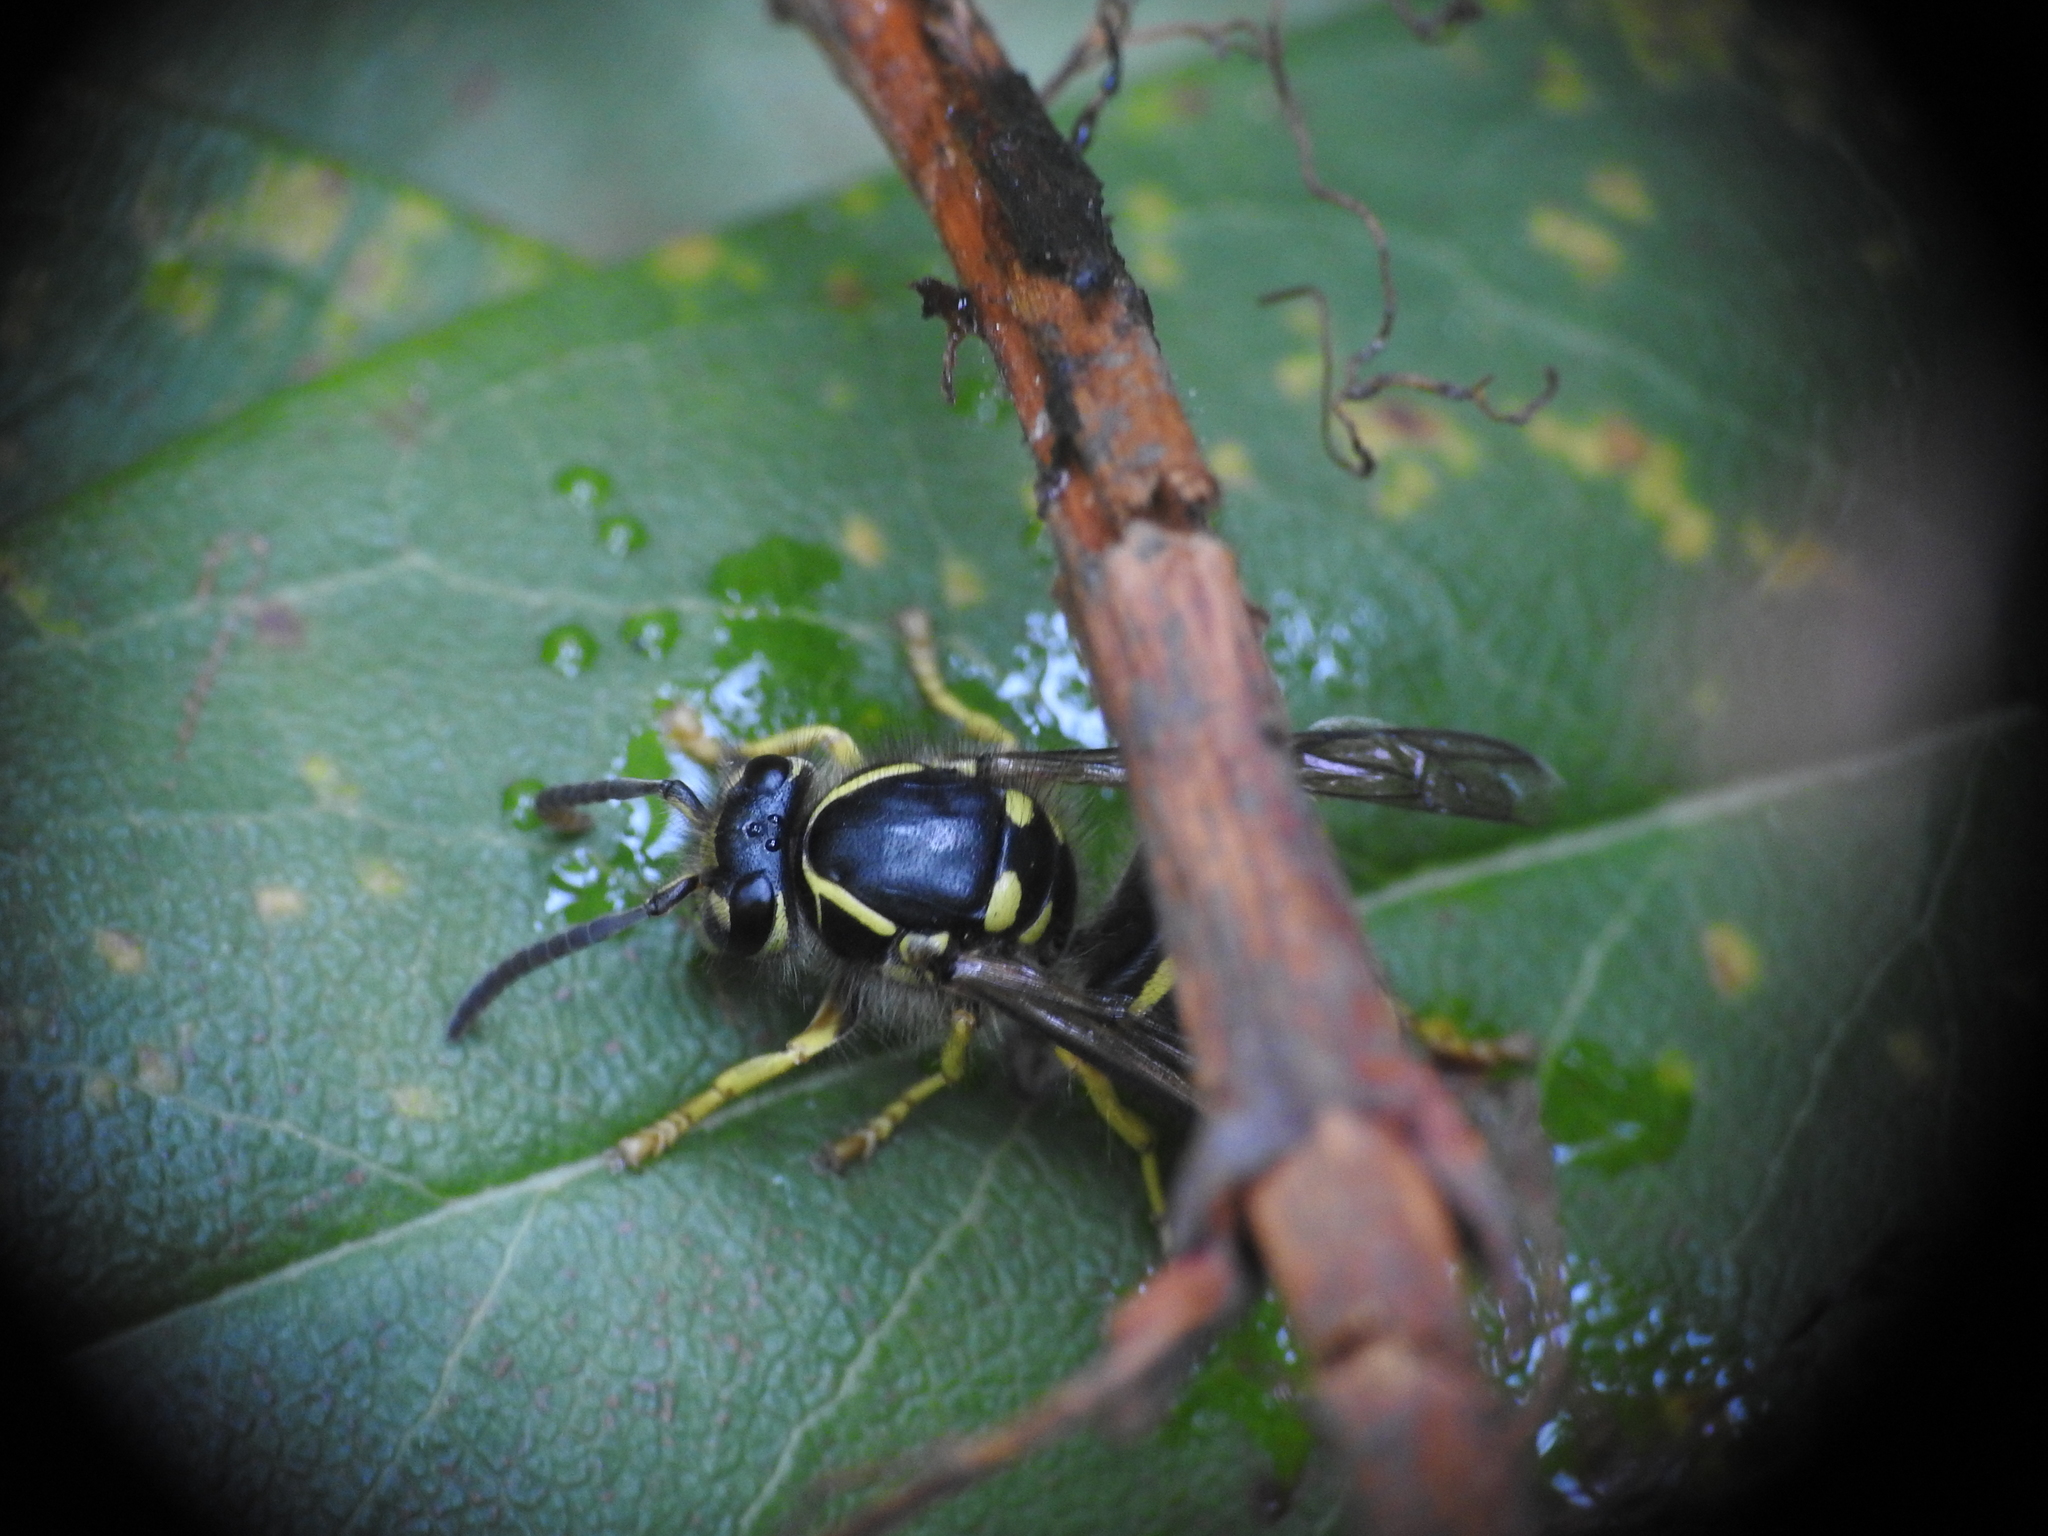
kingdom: Animalia
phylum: Arthropoda
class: Insecta
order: Hymenoptera
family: Vespidae
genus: Dolichovespula
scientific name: Dolichovespula arenaria
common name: Aerial yellowjacket
